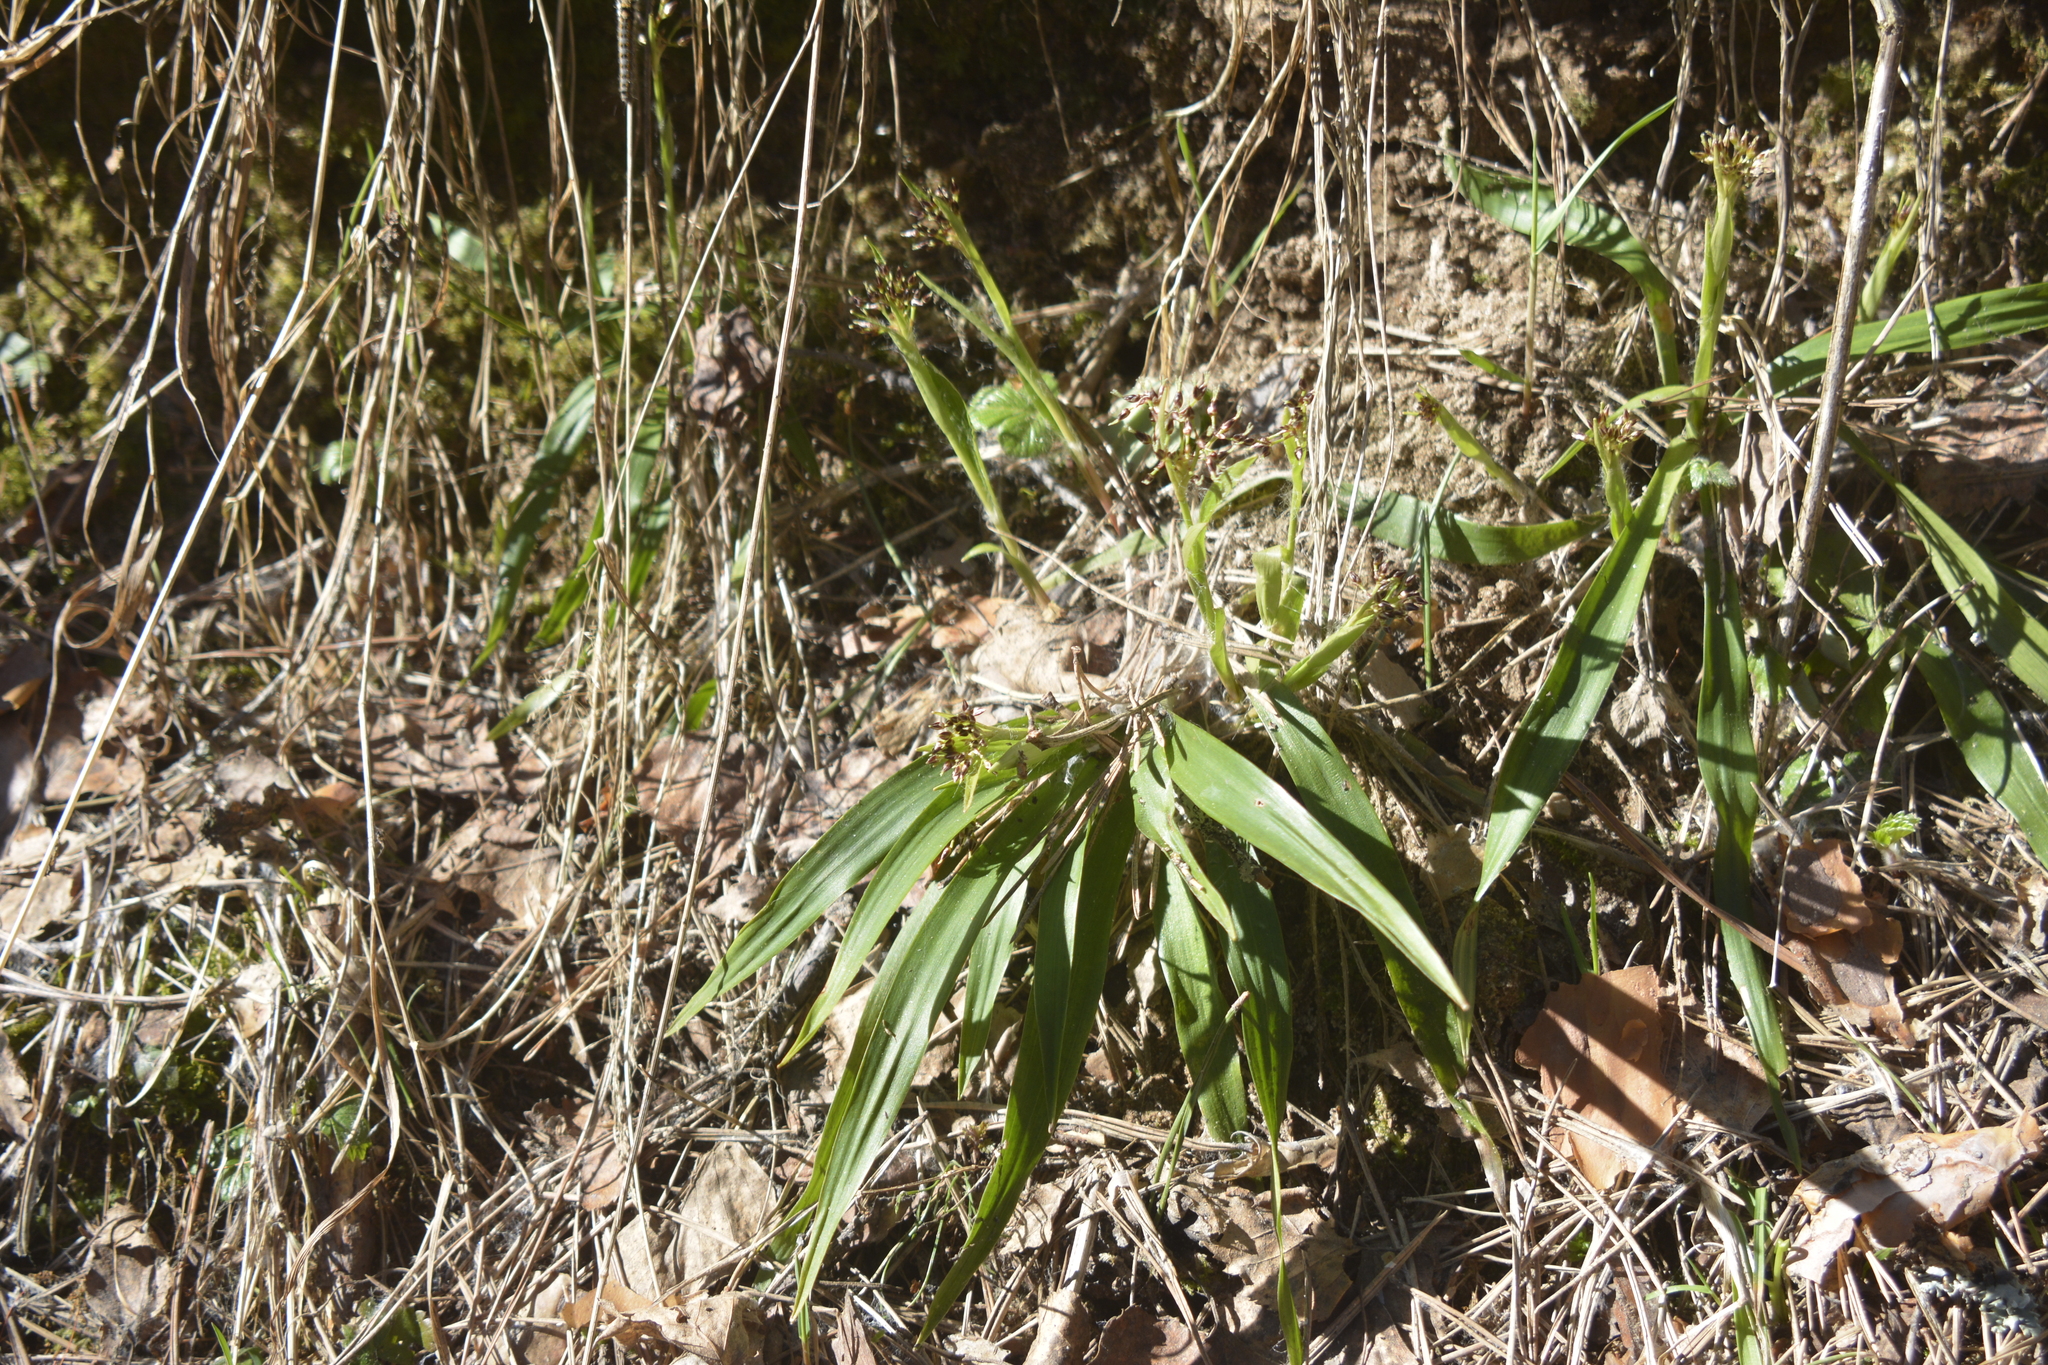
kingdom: Plantae
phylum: Tracheophyta
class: Liliopsida
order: Poales
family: Juncaceae
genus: Luzula
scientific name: Luzula pilosa
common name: Hairy wood-rush
